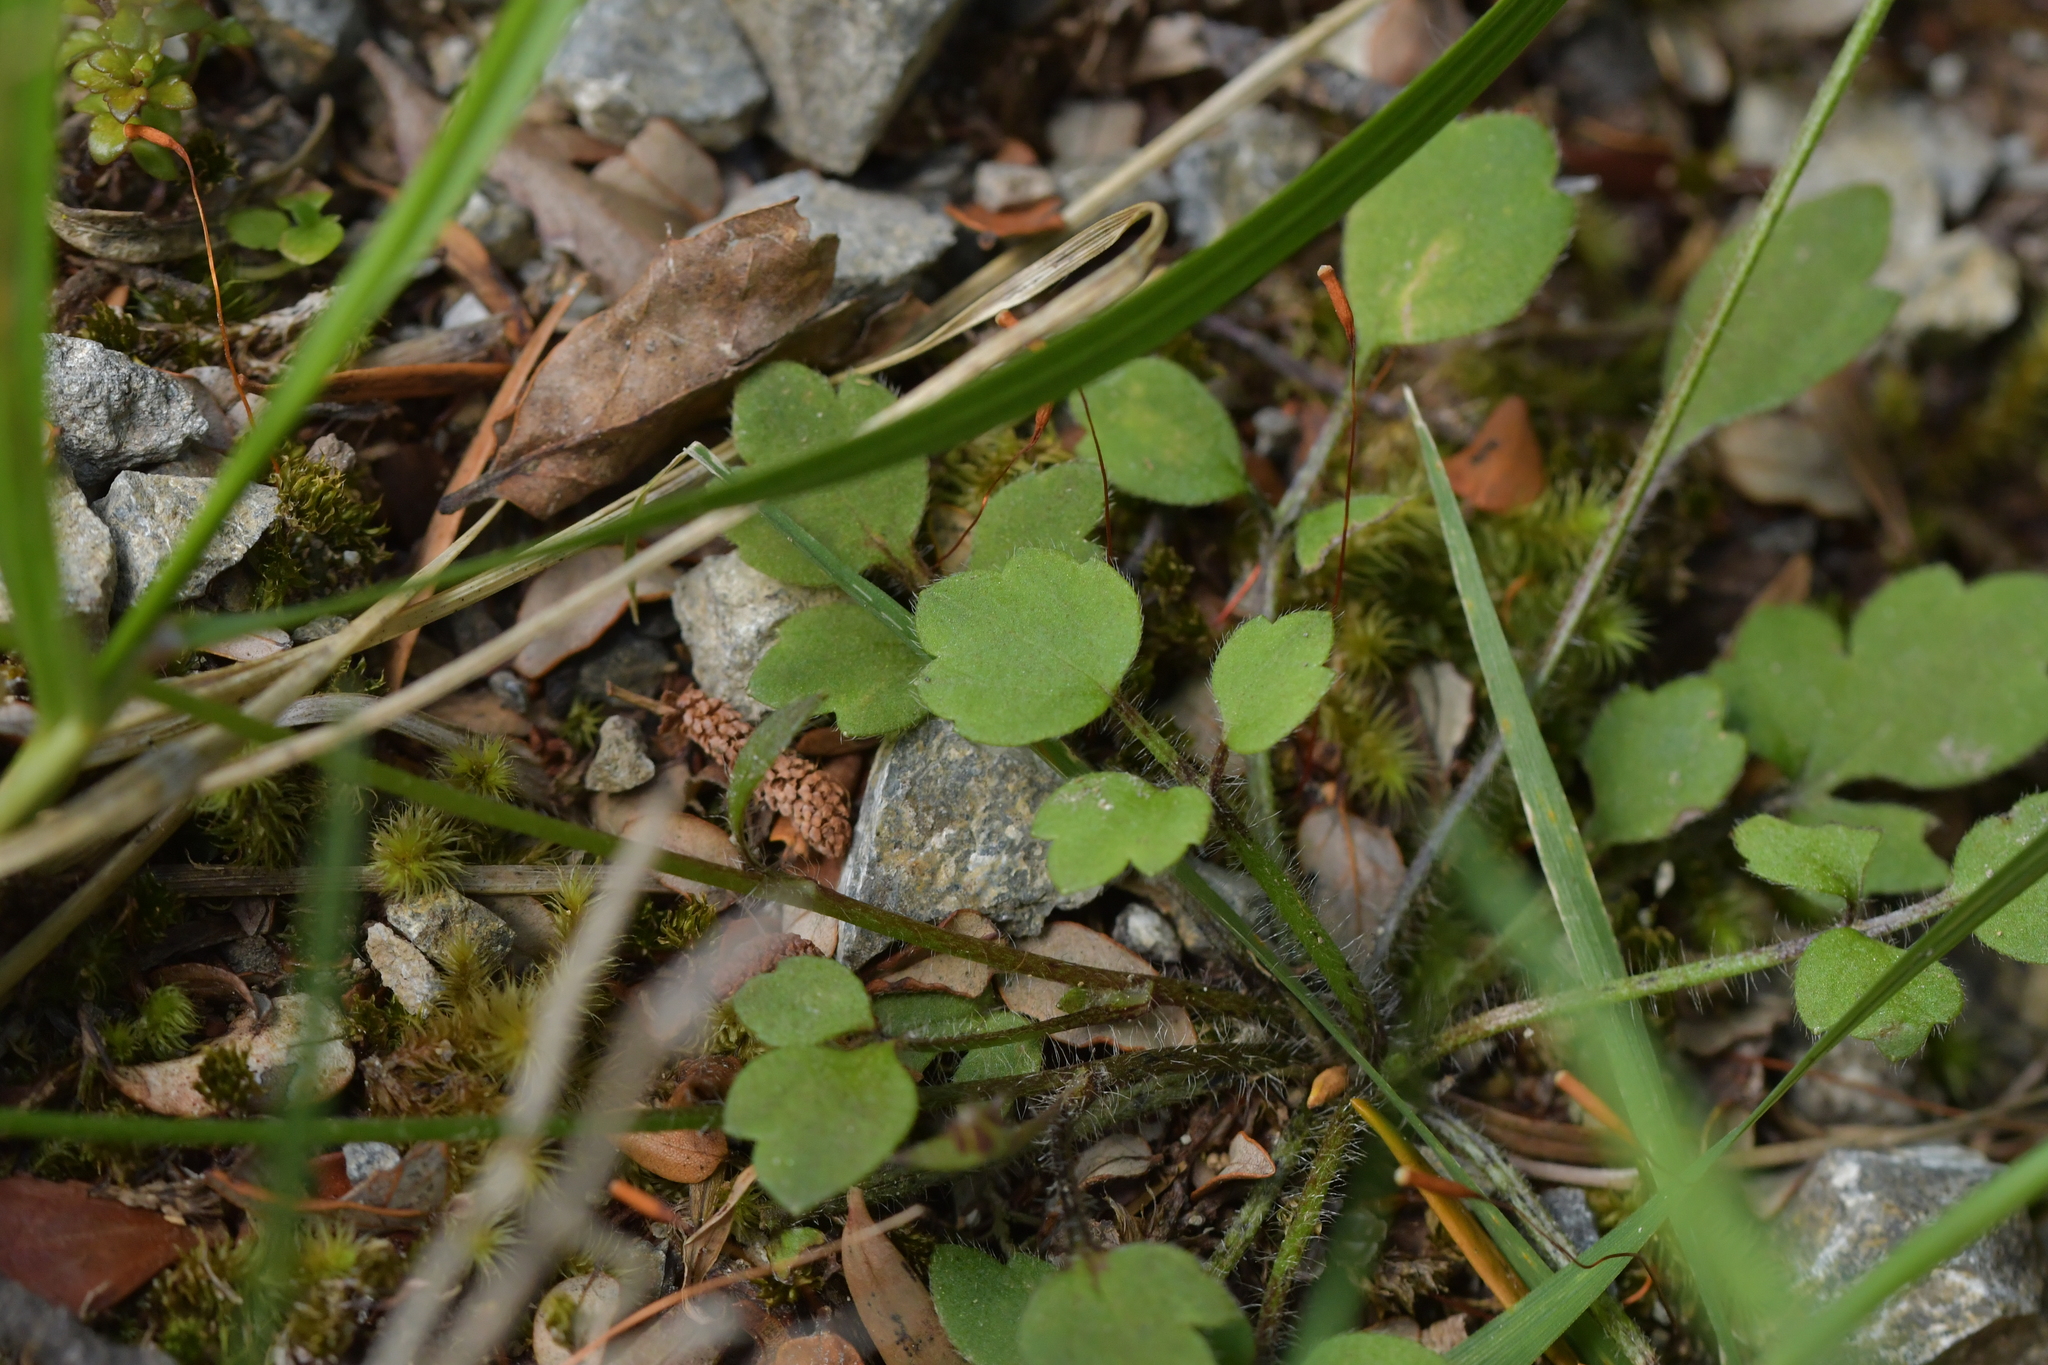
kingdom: Plantae
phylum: Tracheophyta
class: Magnoliopsida
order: Ranunculales
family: Ranunculaceae
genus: Ranunculus
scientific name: Ranunculus reflexus
